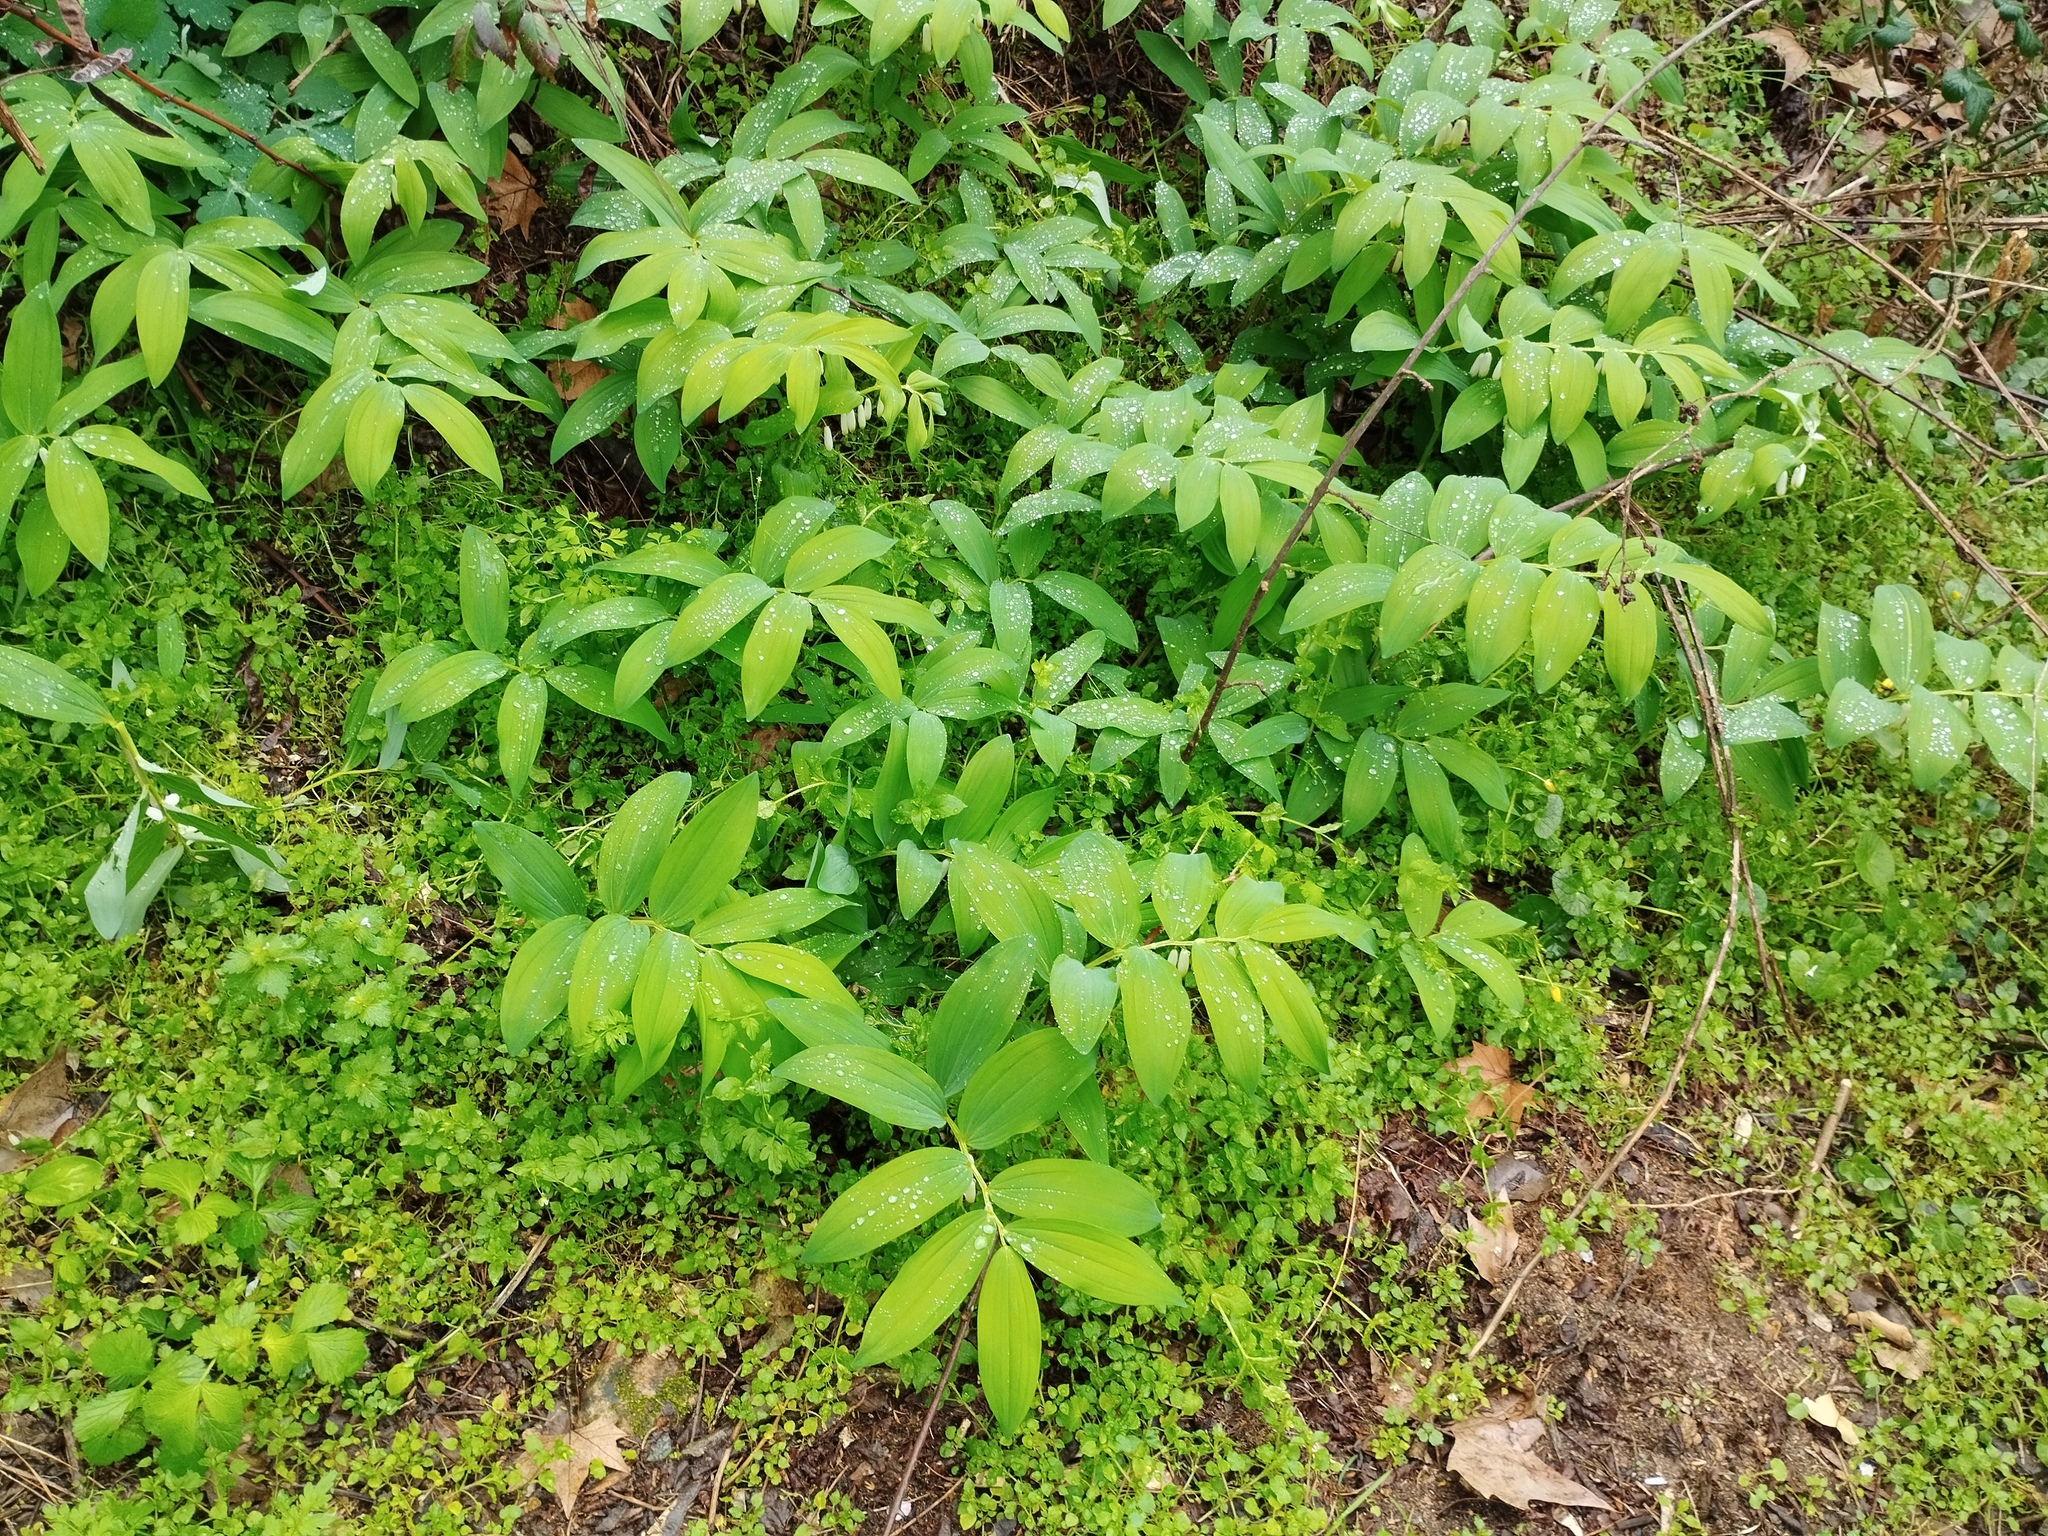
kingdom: Plantae
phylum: Tracheophyta
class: Liliopsida
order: Asparagales
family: Asparagaceae
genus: Polygonatum
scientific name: Polygonatum odoratum
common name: Angular solomon's-seal
